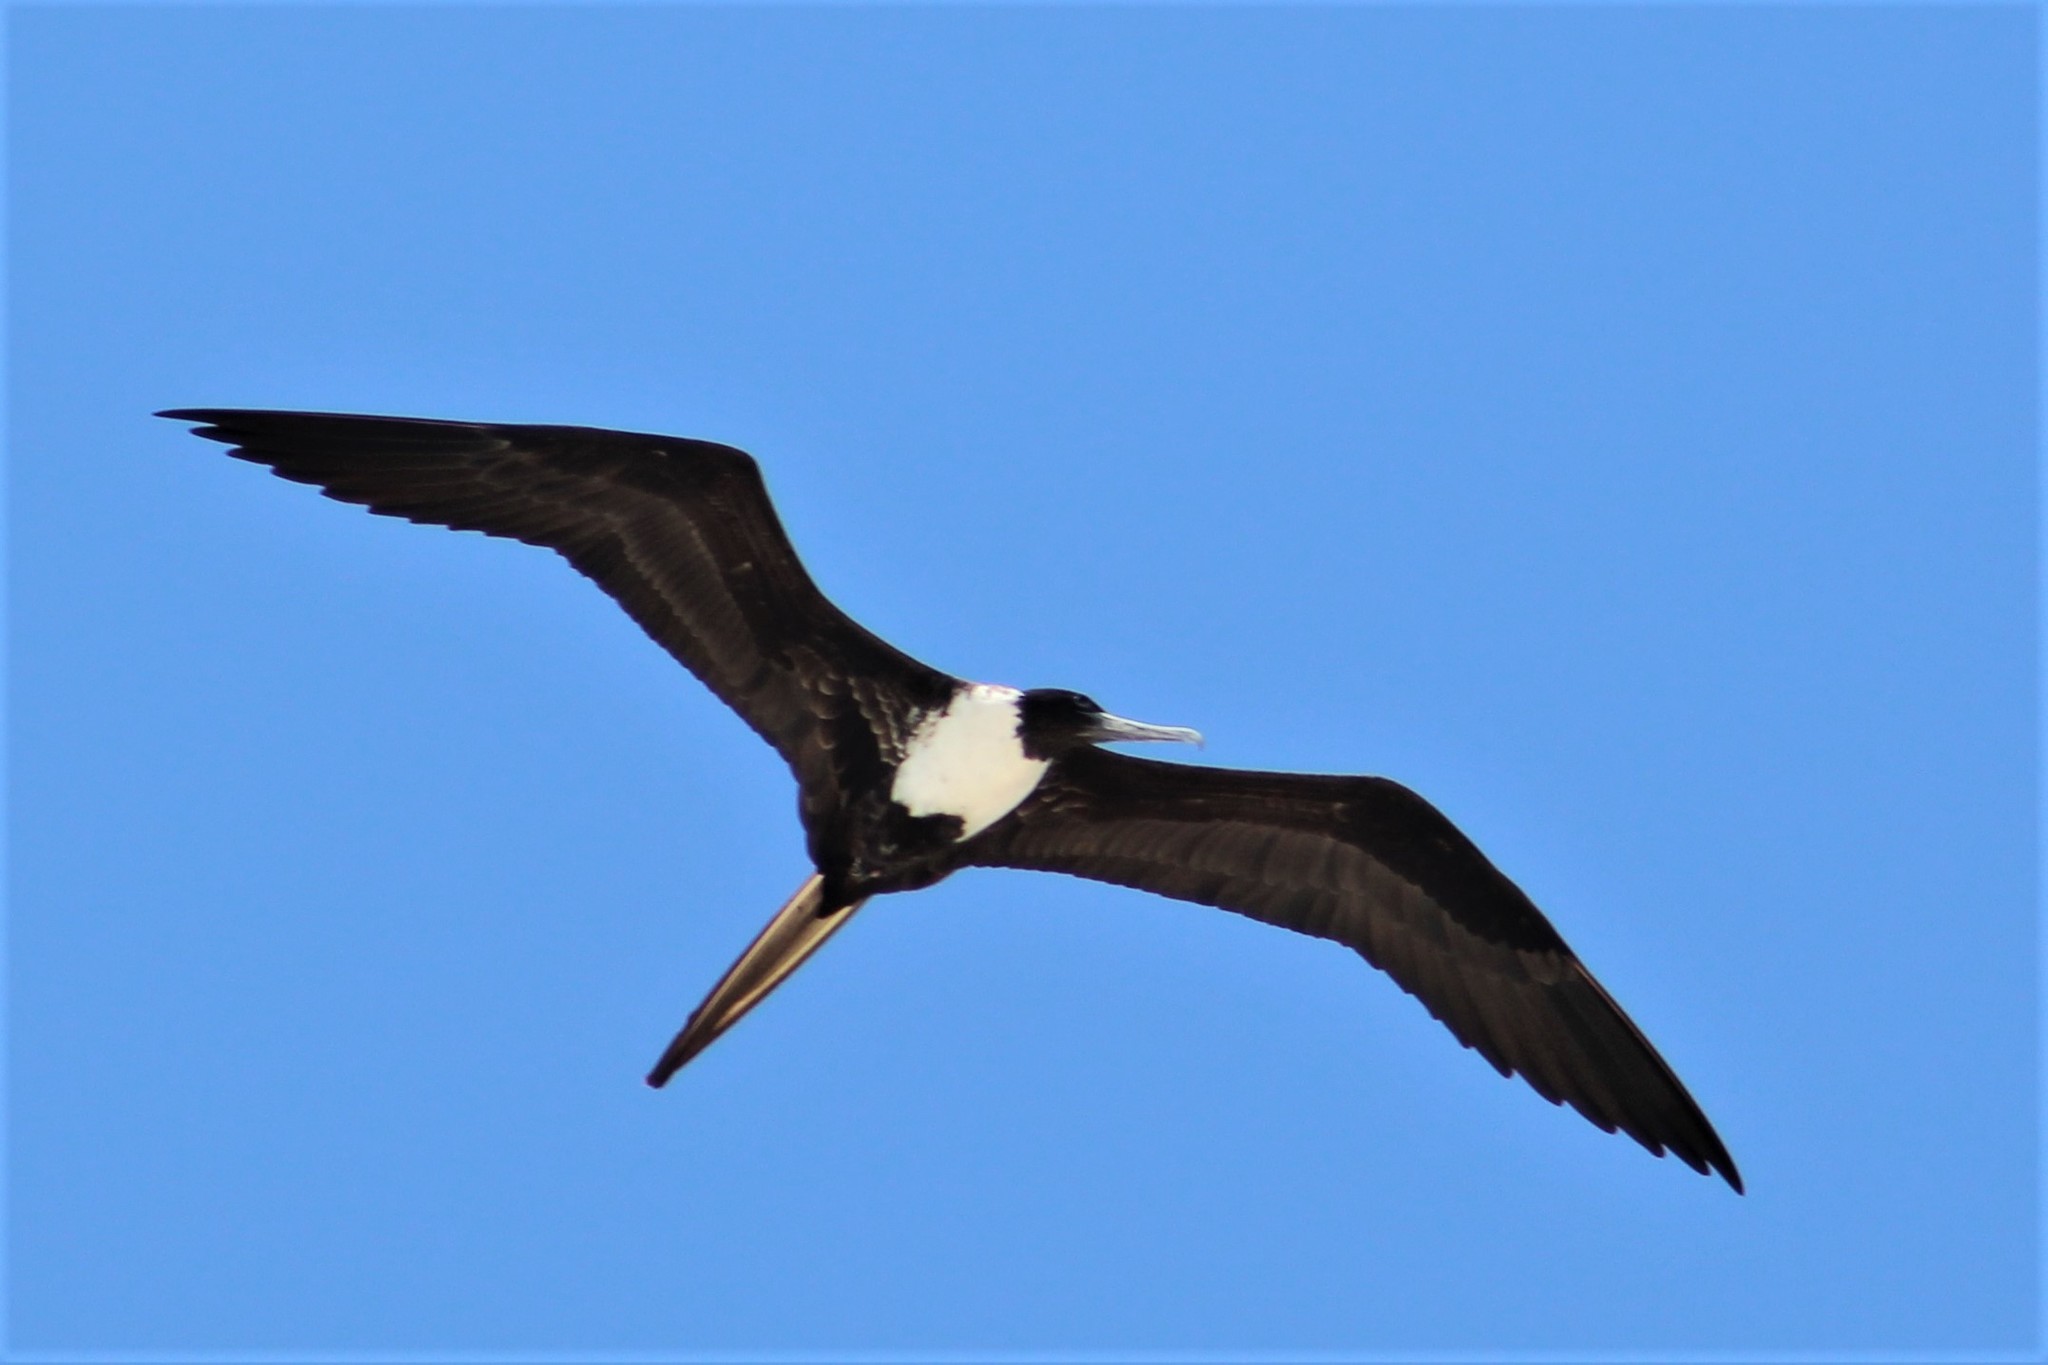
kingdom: Animalia
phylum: Chordata
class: Aves
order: Suliformes
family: Fregatidae
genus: Fregata
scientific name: Fregata magnificens
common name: Magnificent frigatebird
